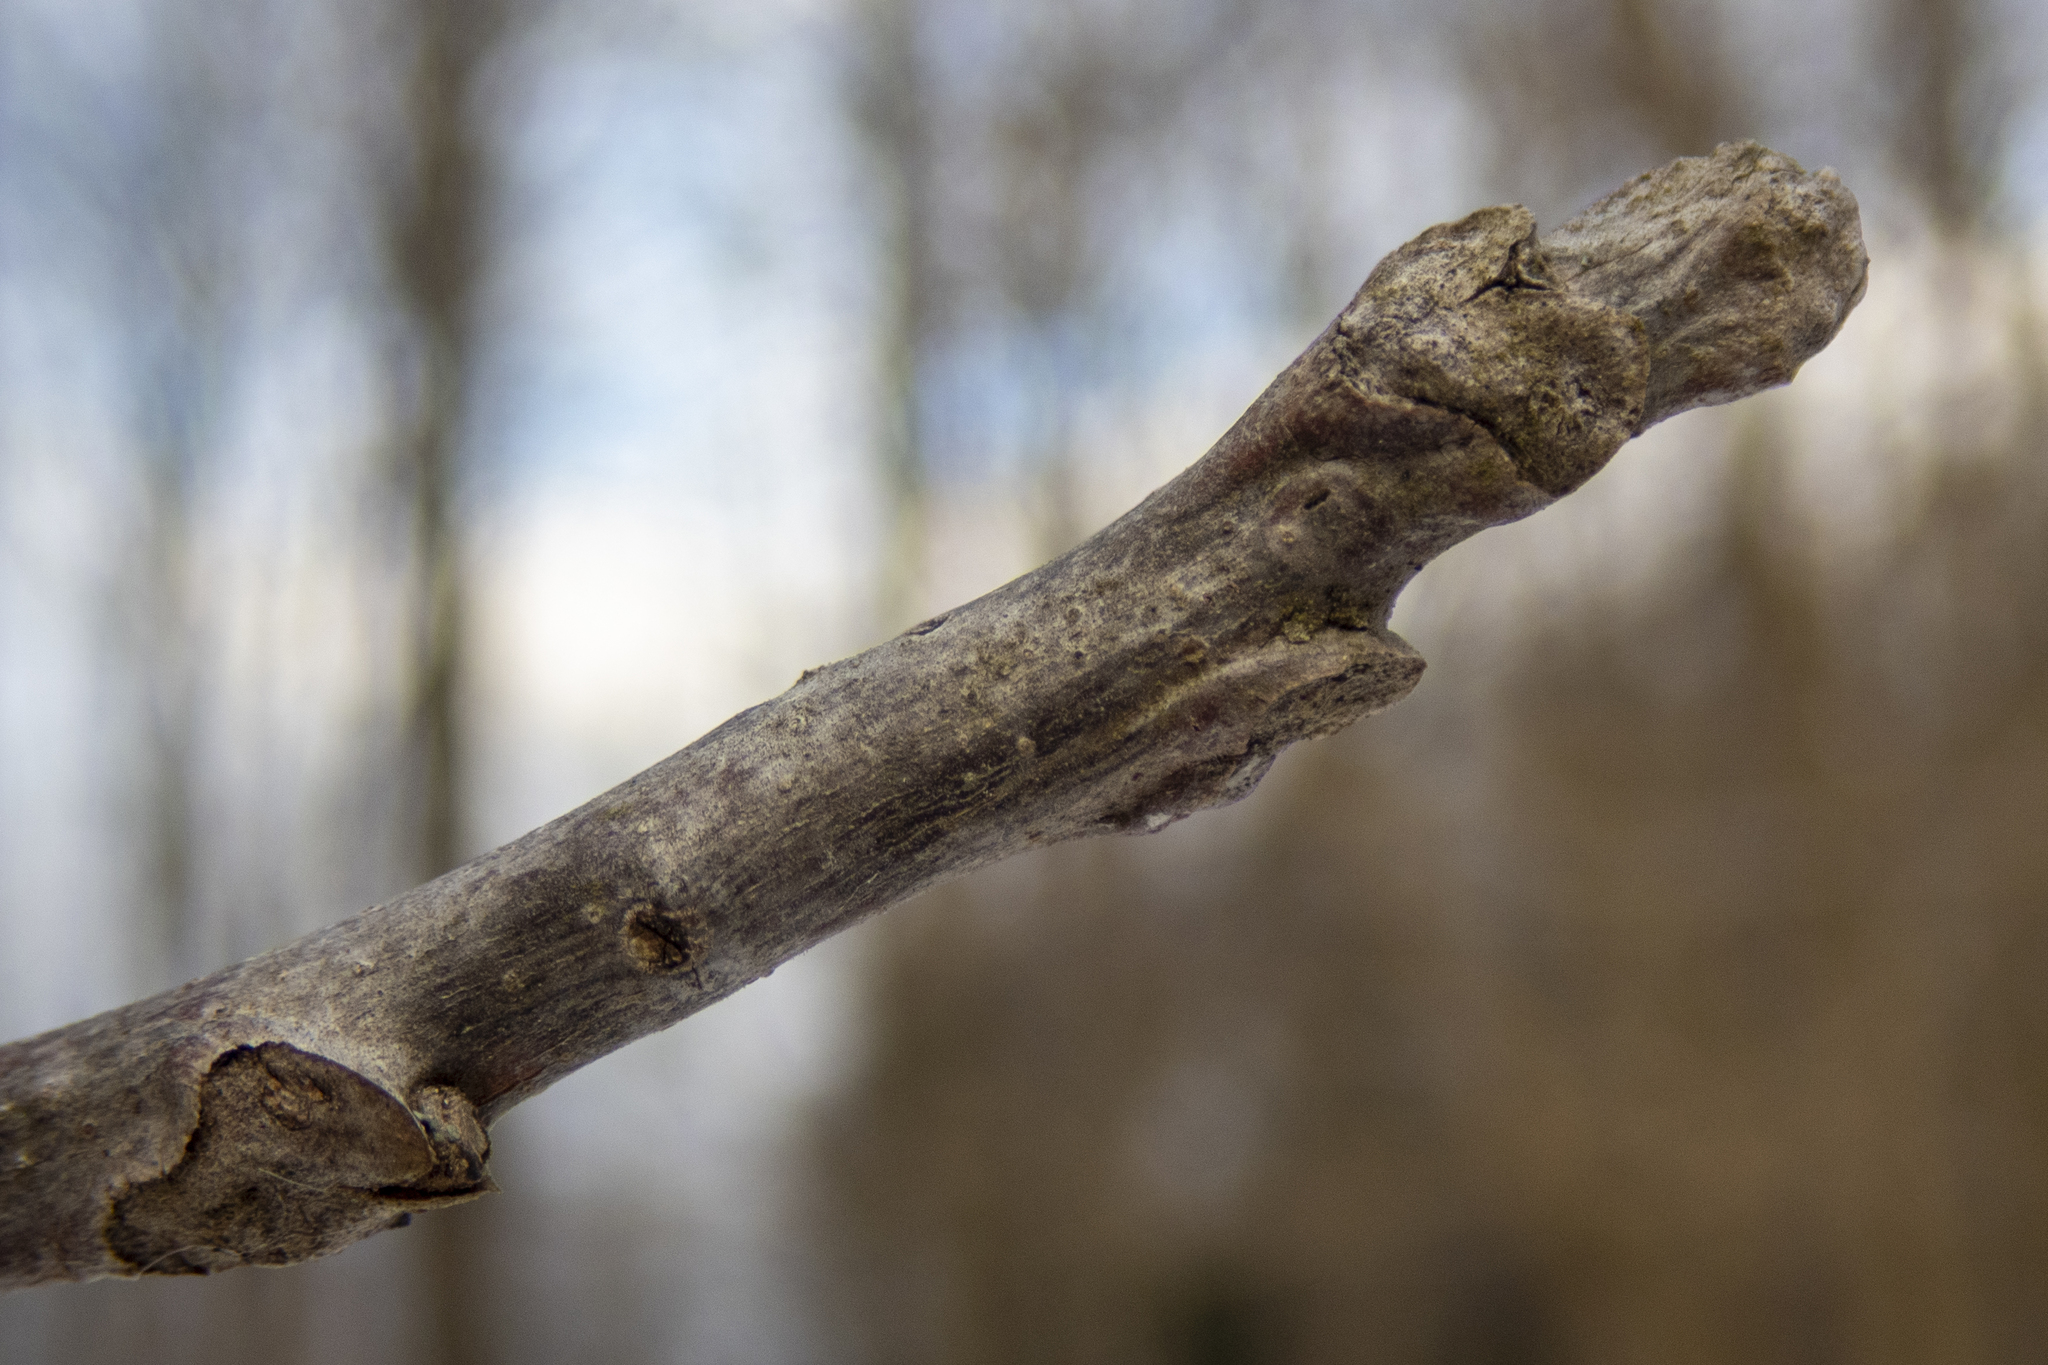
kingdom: Plantae
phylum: Tracheophyta
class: Magnoliopsida
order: Fagales
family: Juglandaceae
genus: Juglans
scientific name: Juglans nigra
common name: Black walnut
